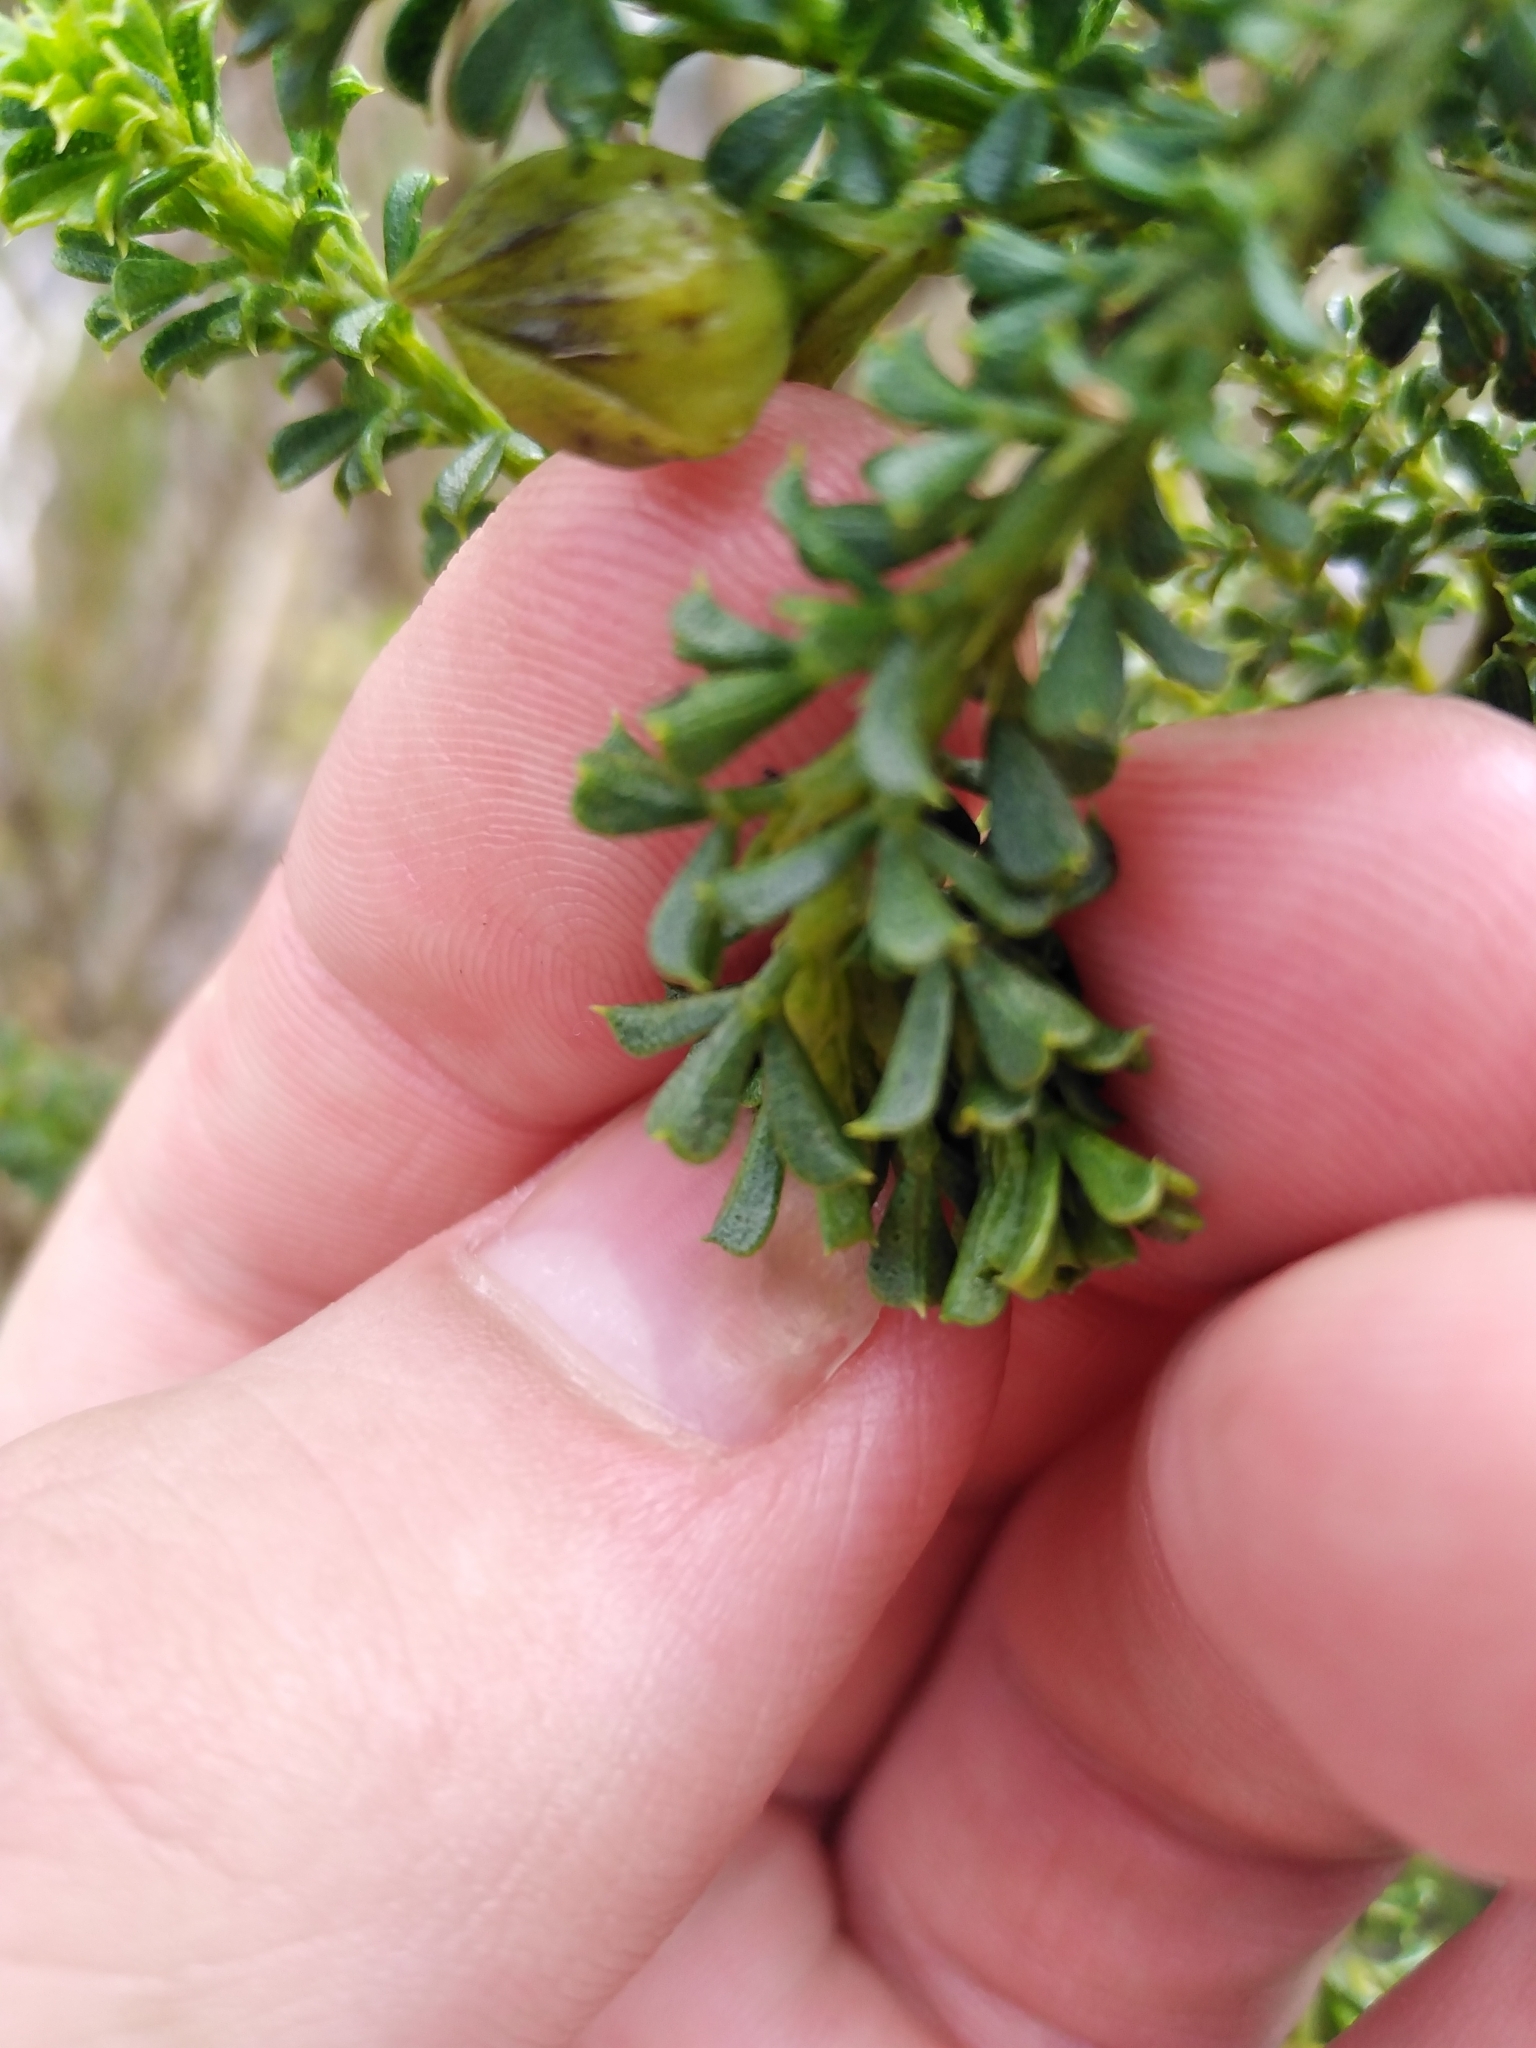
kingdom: Plantae
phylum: Tracheophyta
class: Magnoliopsida
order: Fabales
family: Fabaceae
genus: Psoralea
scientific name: Psoralea aculeata
